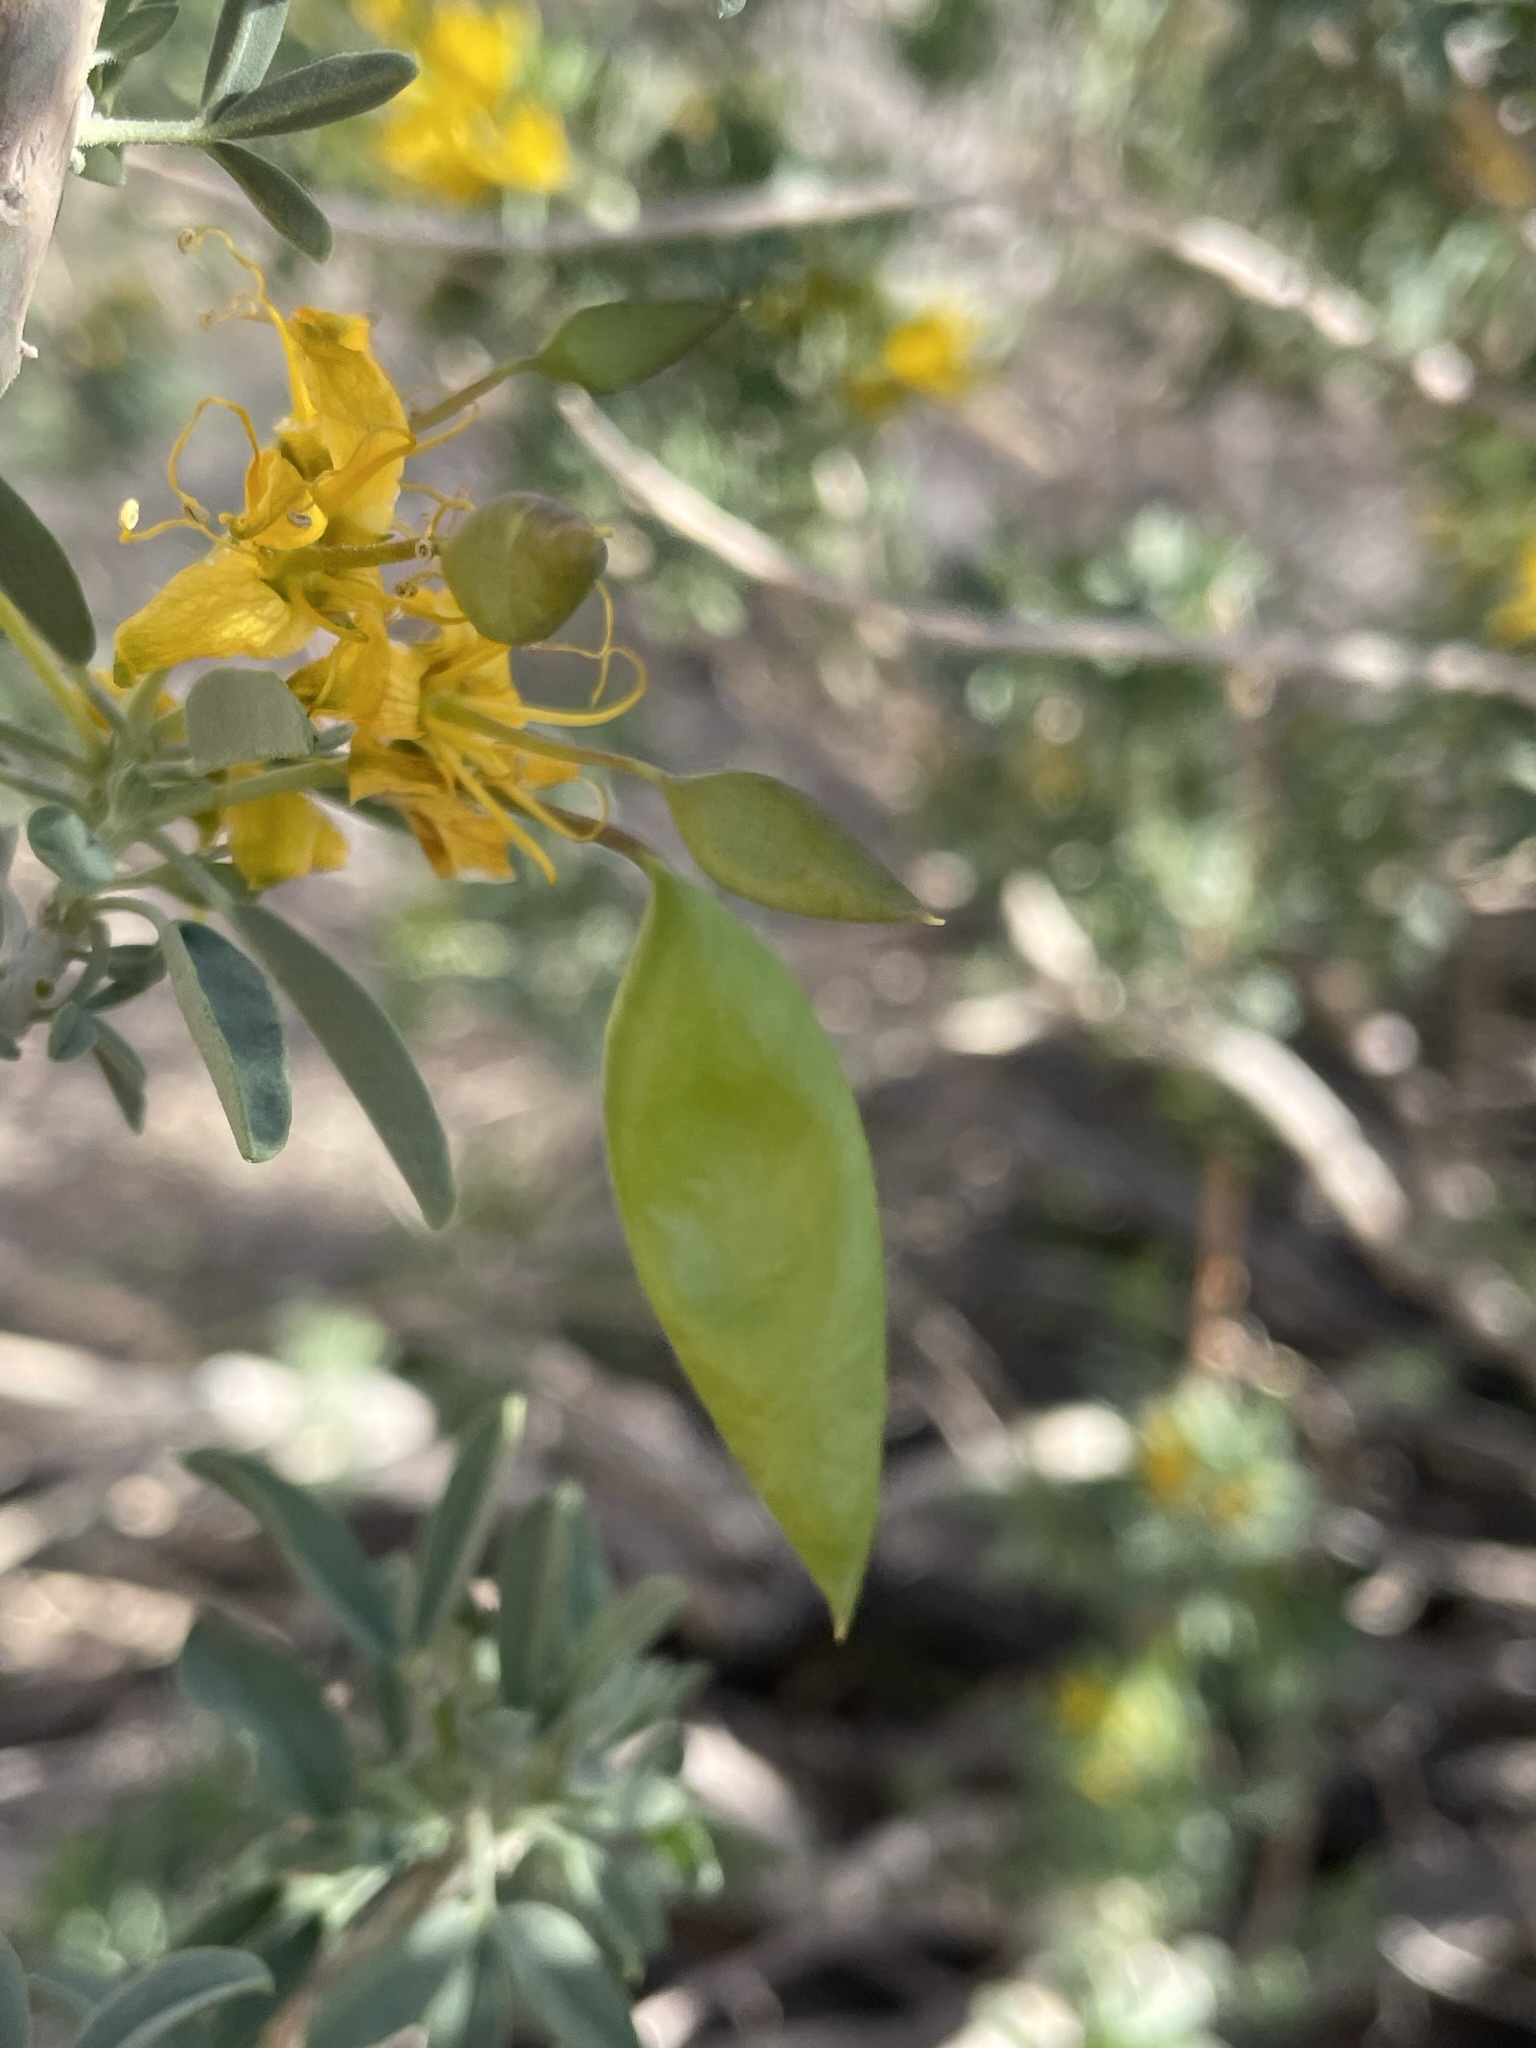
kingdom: Plantae
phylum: Tracheophyta
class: Magnoliopsida
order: Brassicales
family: Cleomaceae
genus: Cleomella
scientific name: Cleomella arborea
